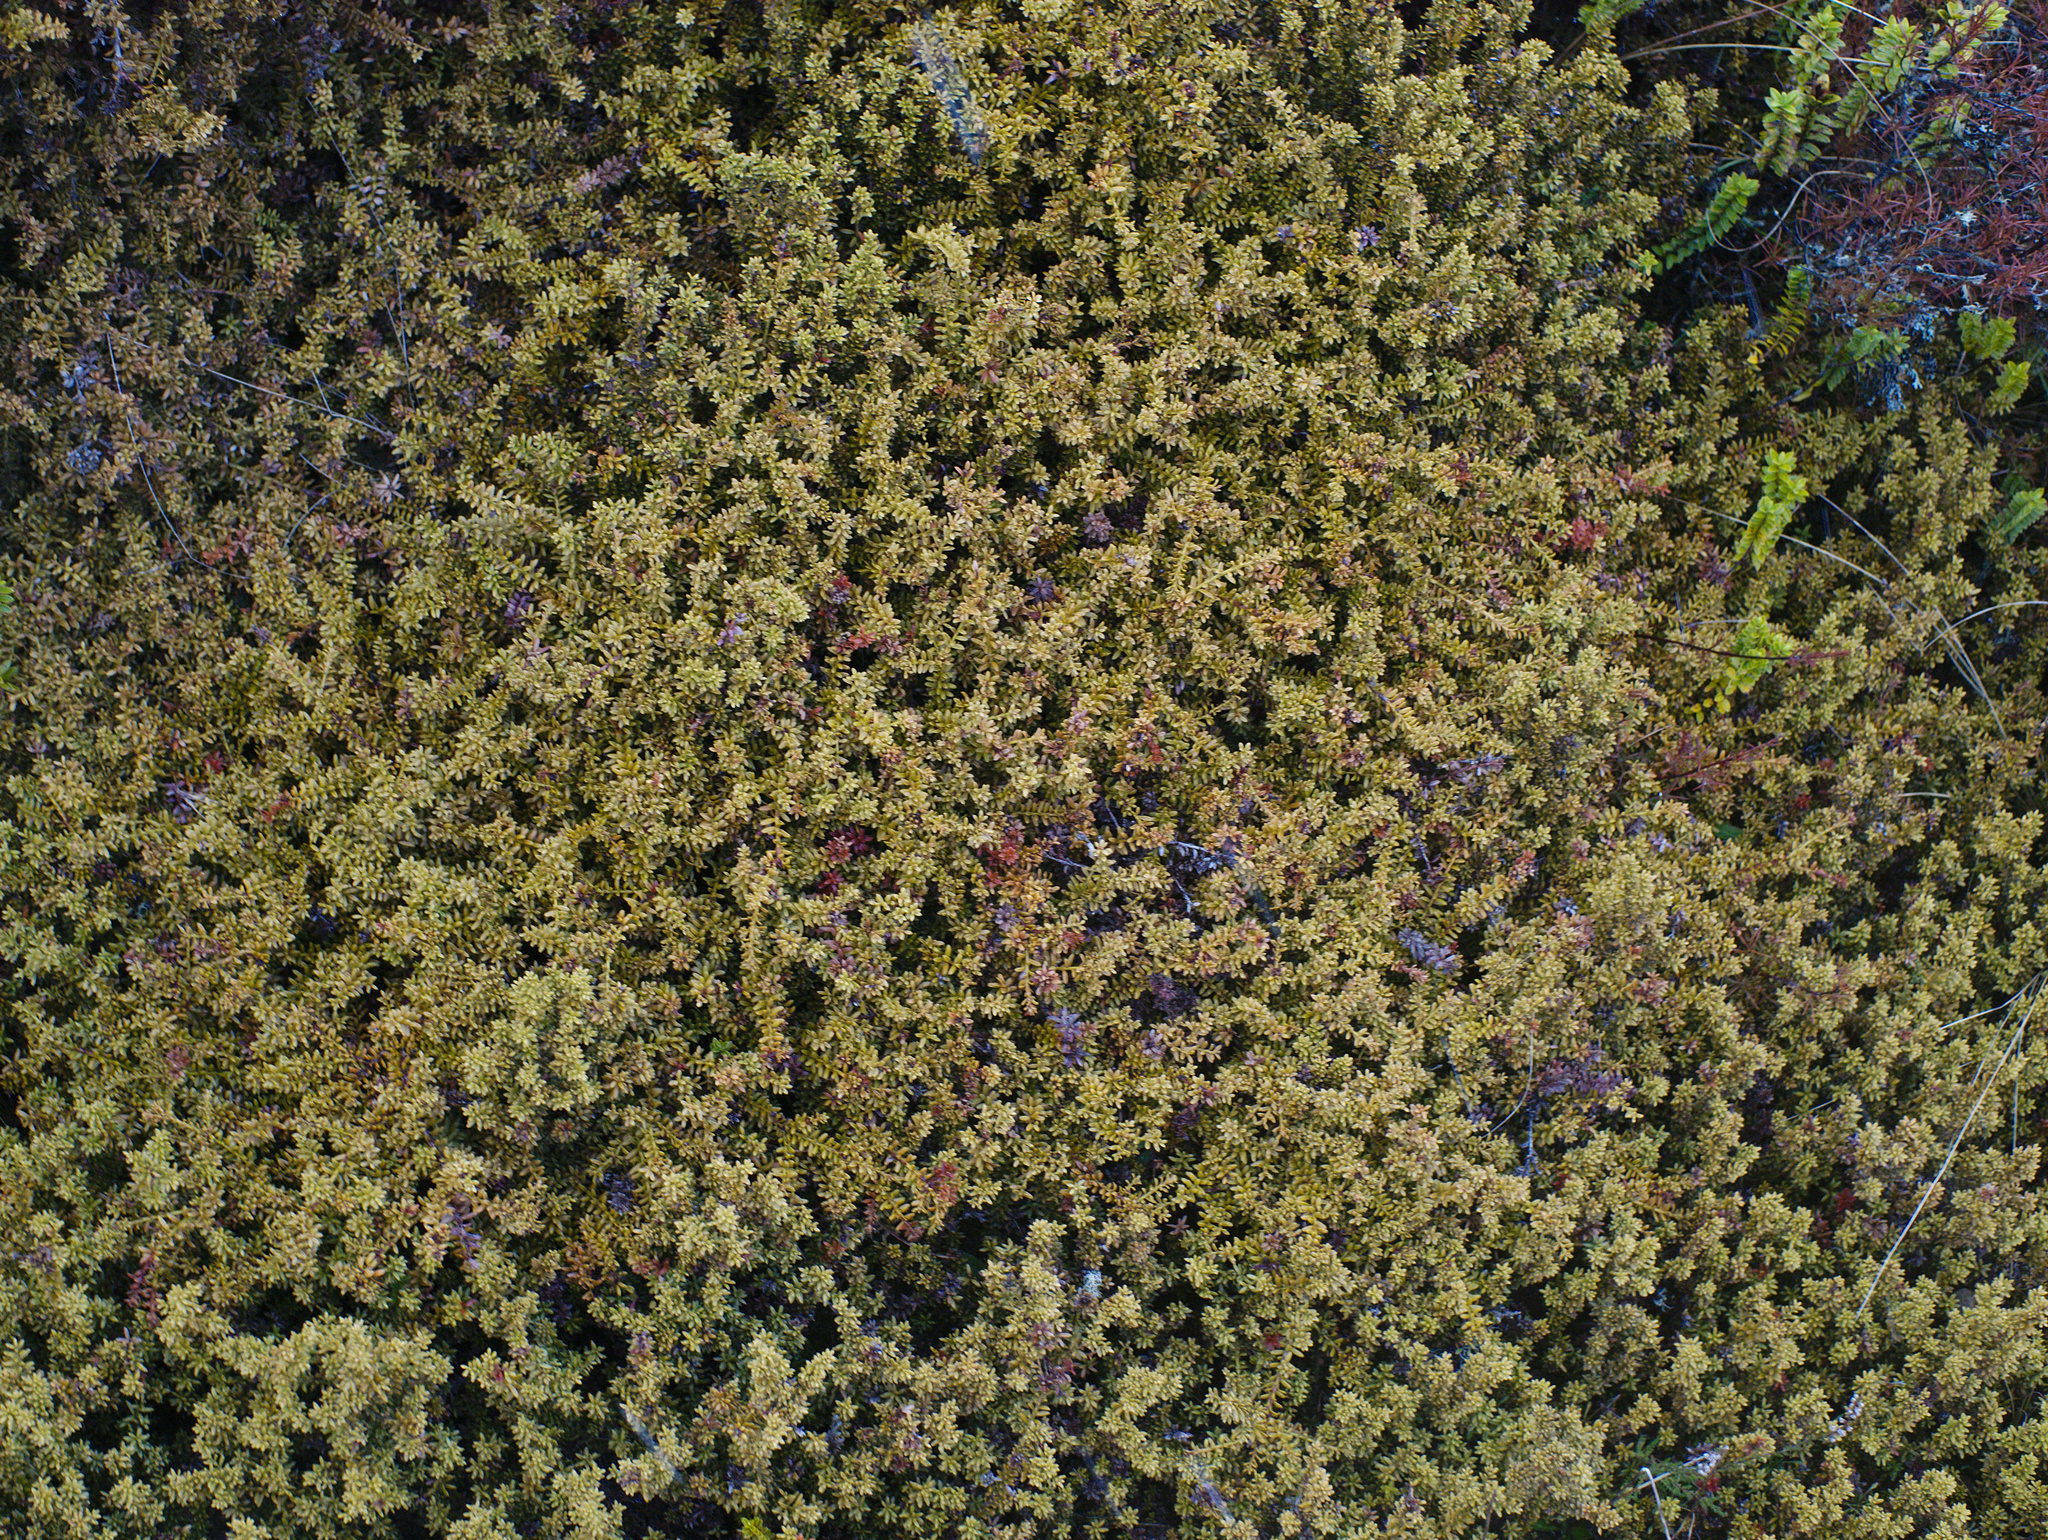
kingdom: Plantae
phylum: Tracheophyta
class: Pinopsida
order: Pinales
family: Podocarpaceae
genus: Podocarpus
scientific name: Podocarpus nivalis
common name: Alpine totara
